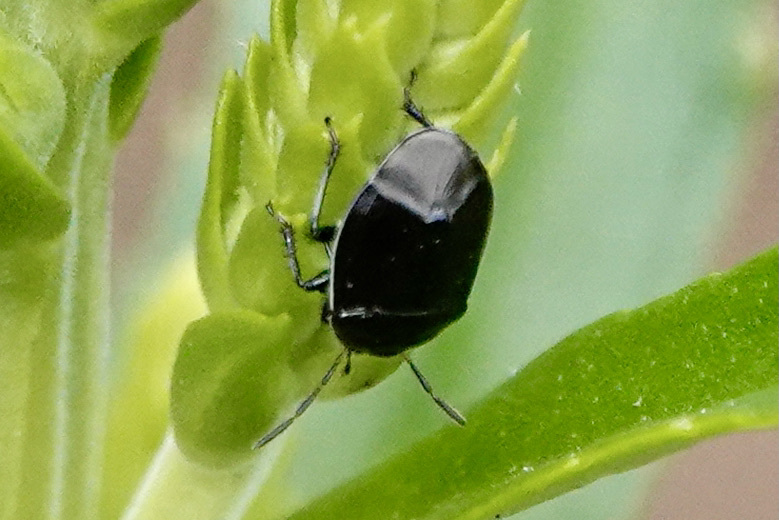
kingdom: Animalia
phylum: Arthropoda
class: Insecta
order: Hemiptera
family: Cydnidae
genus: Sehirus
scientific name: Sehirus cinctus
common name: White-margined burrower bug
